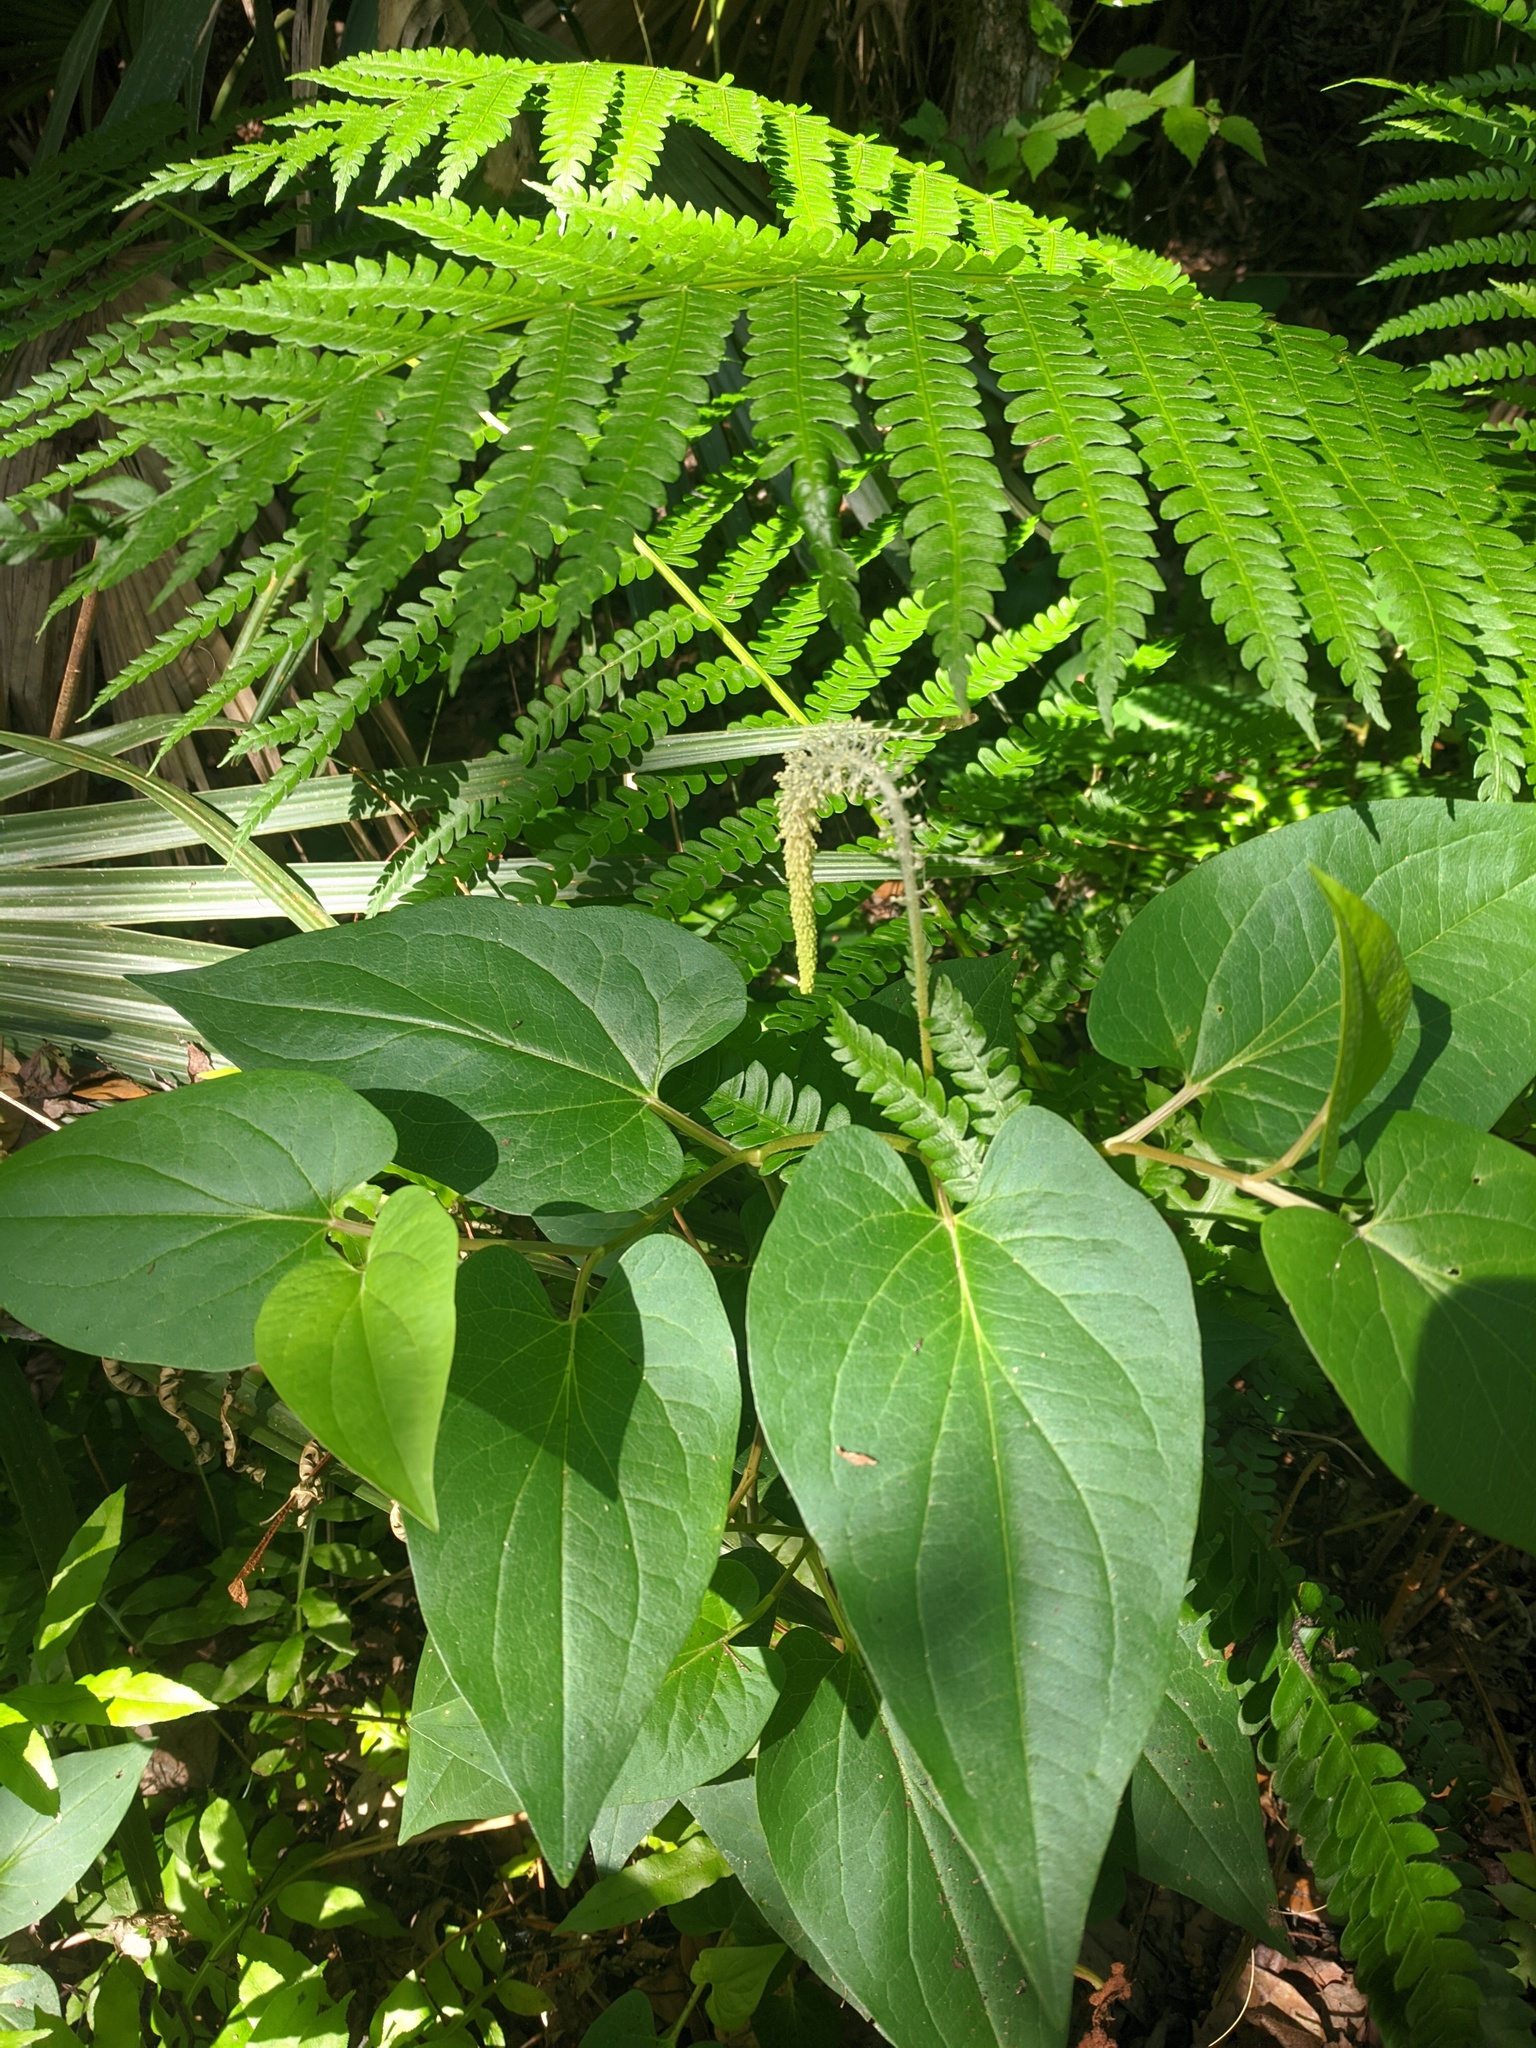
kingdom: Plantae
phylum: Tracheophyta
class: Magnoliopsida
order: Piperales
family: Saururaceae
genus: Saururus
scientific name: Saururus cernuus
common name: Lizard's-tail
